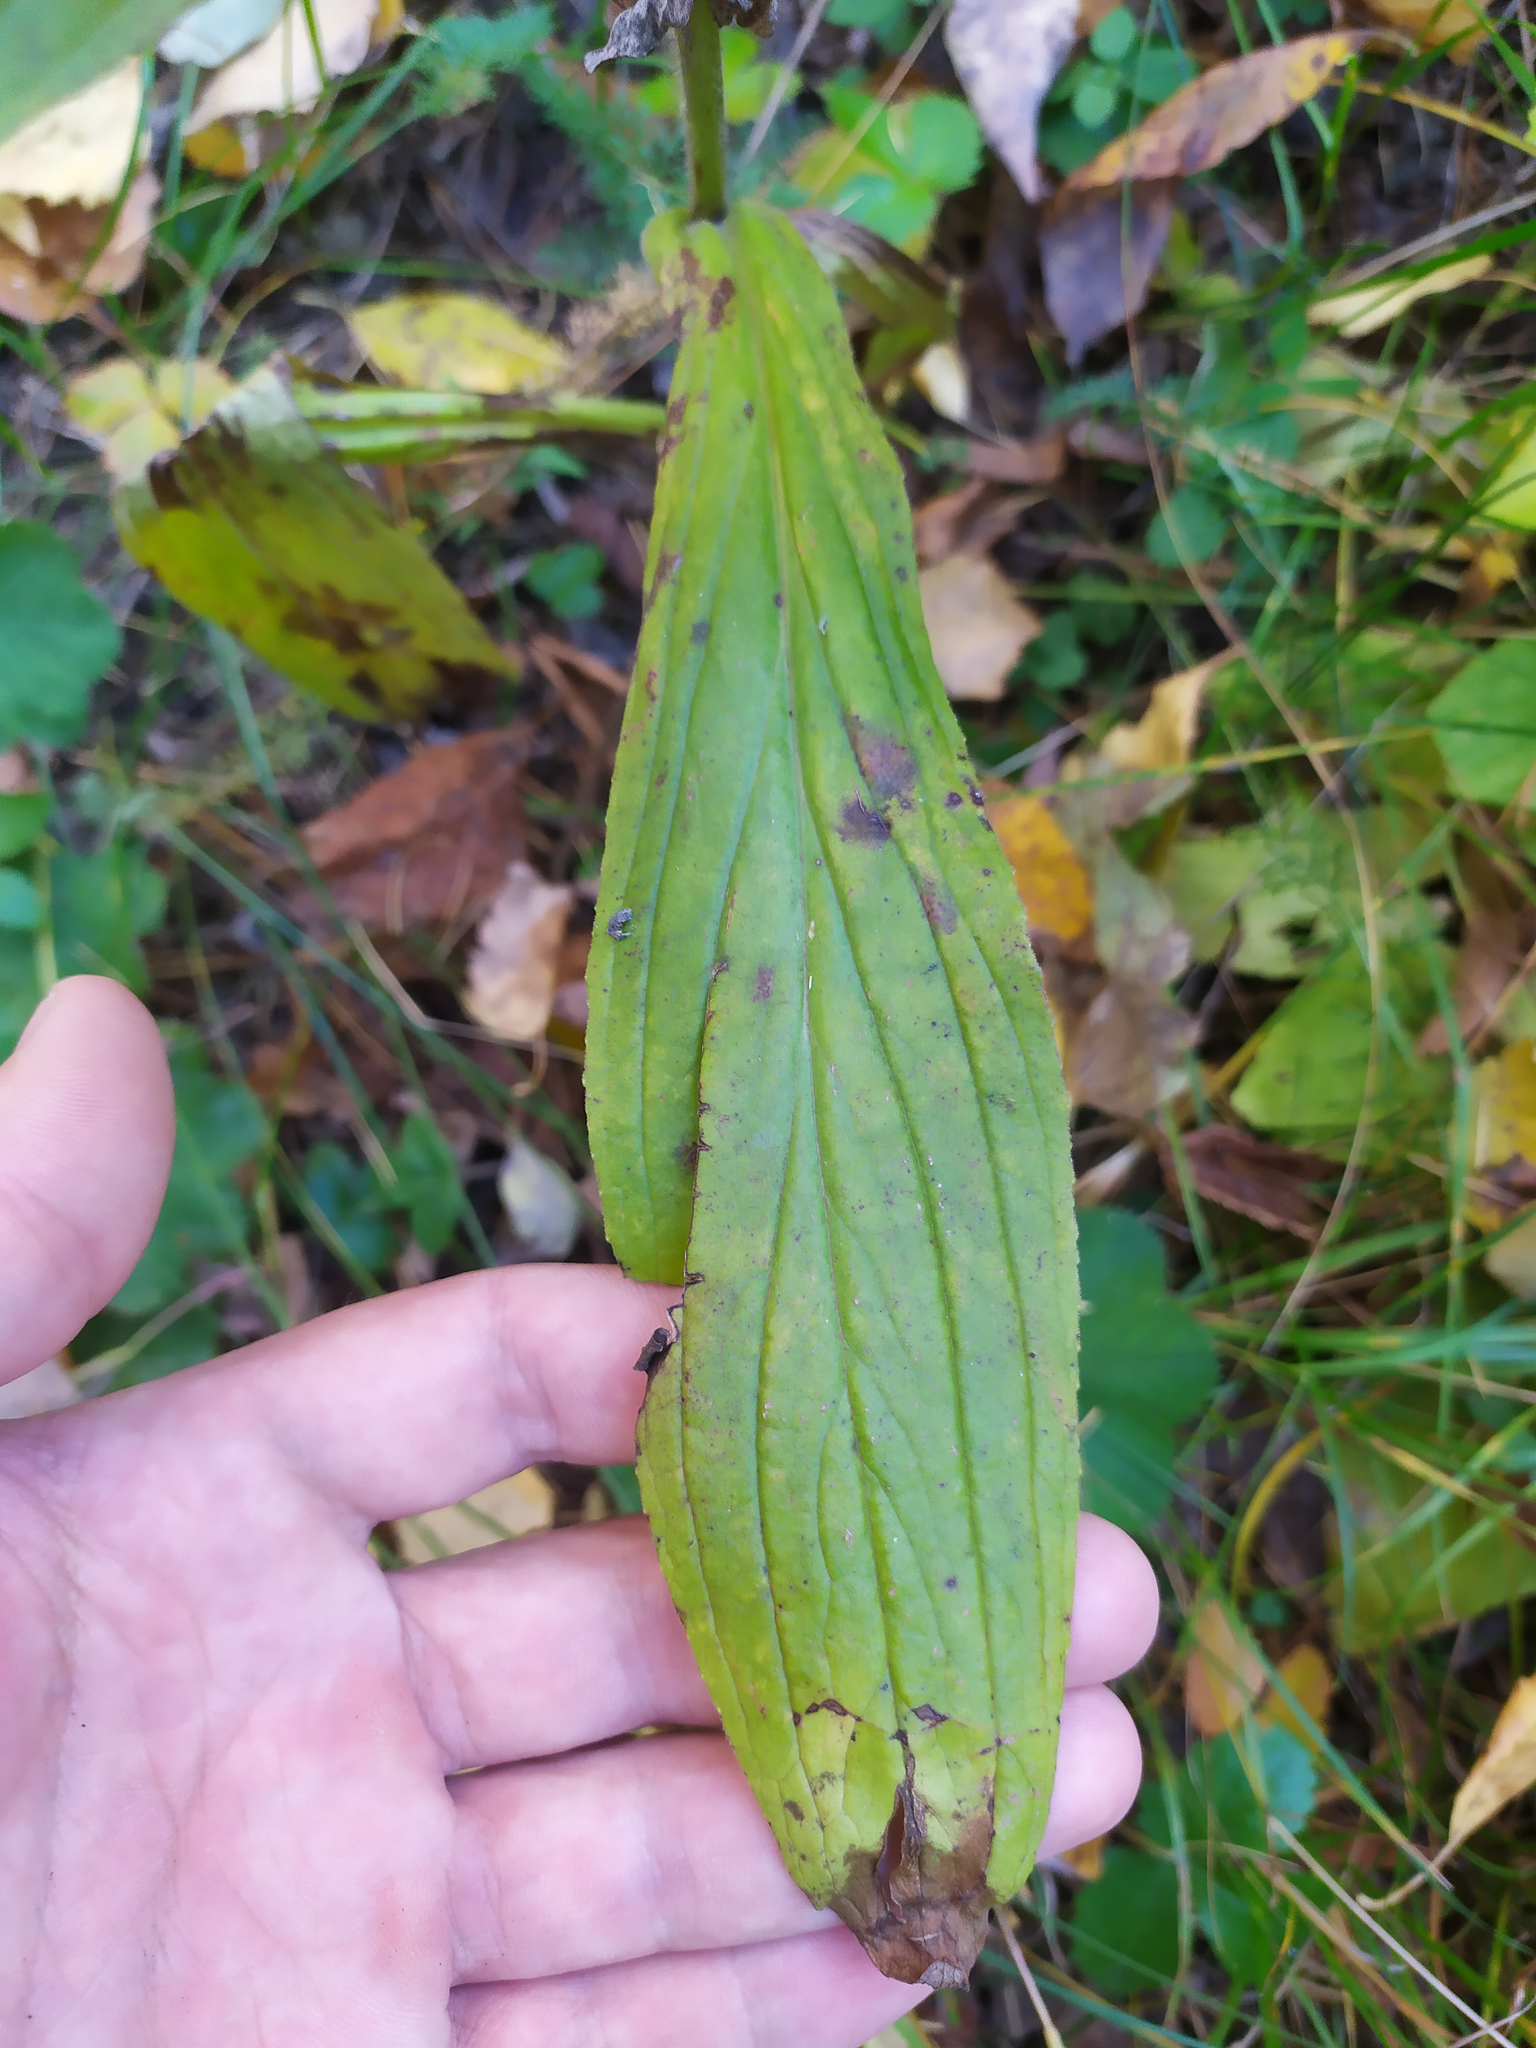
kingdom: Plantae
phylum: Tracheophyta
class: Magnoliopsida
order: Lamiales
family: Plantaginaceae
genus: Digitalis
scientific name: Digitalis grandiflora
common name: Yellow foxglove
